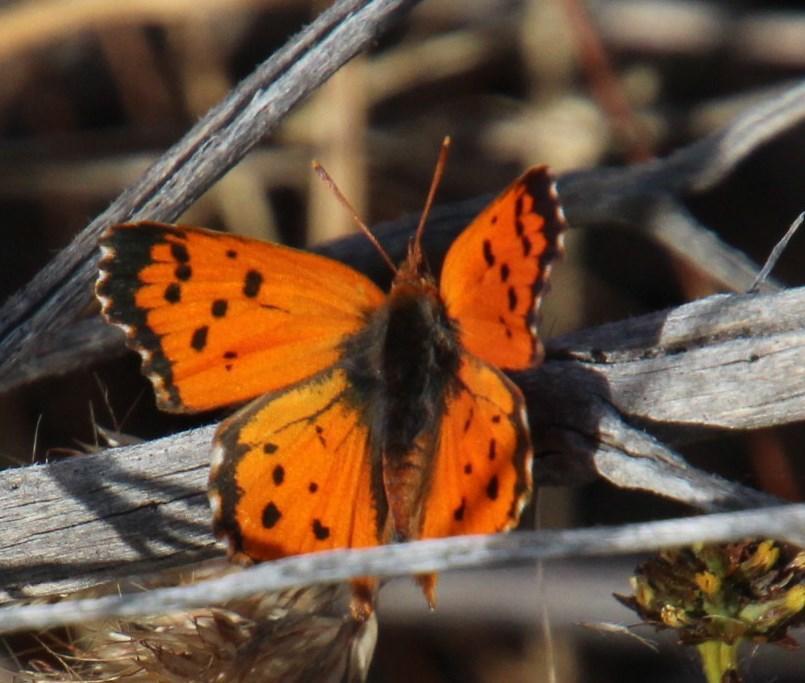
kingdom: Animalia
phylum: Arthropoda
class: Insecta
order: Lepidoptera
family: Lycaenidae
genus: Chrysoritis
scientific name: Chrysoritis
